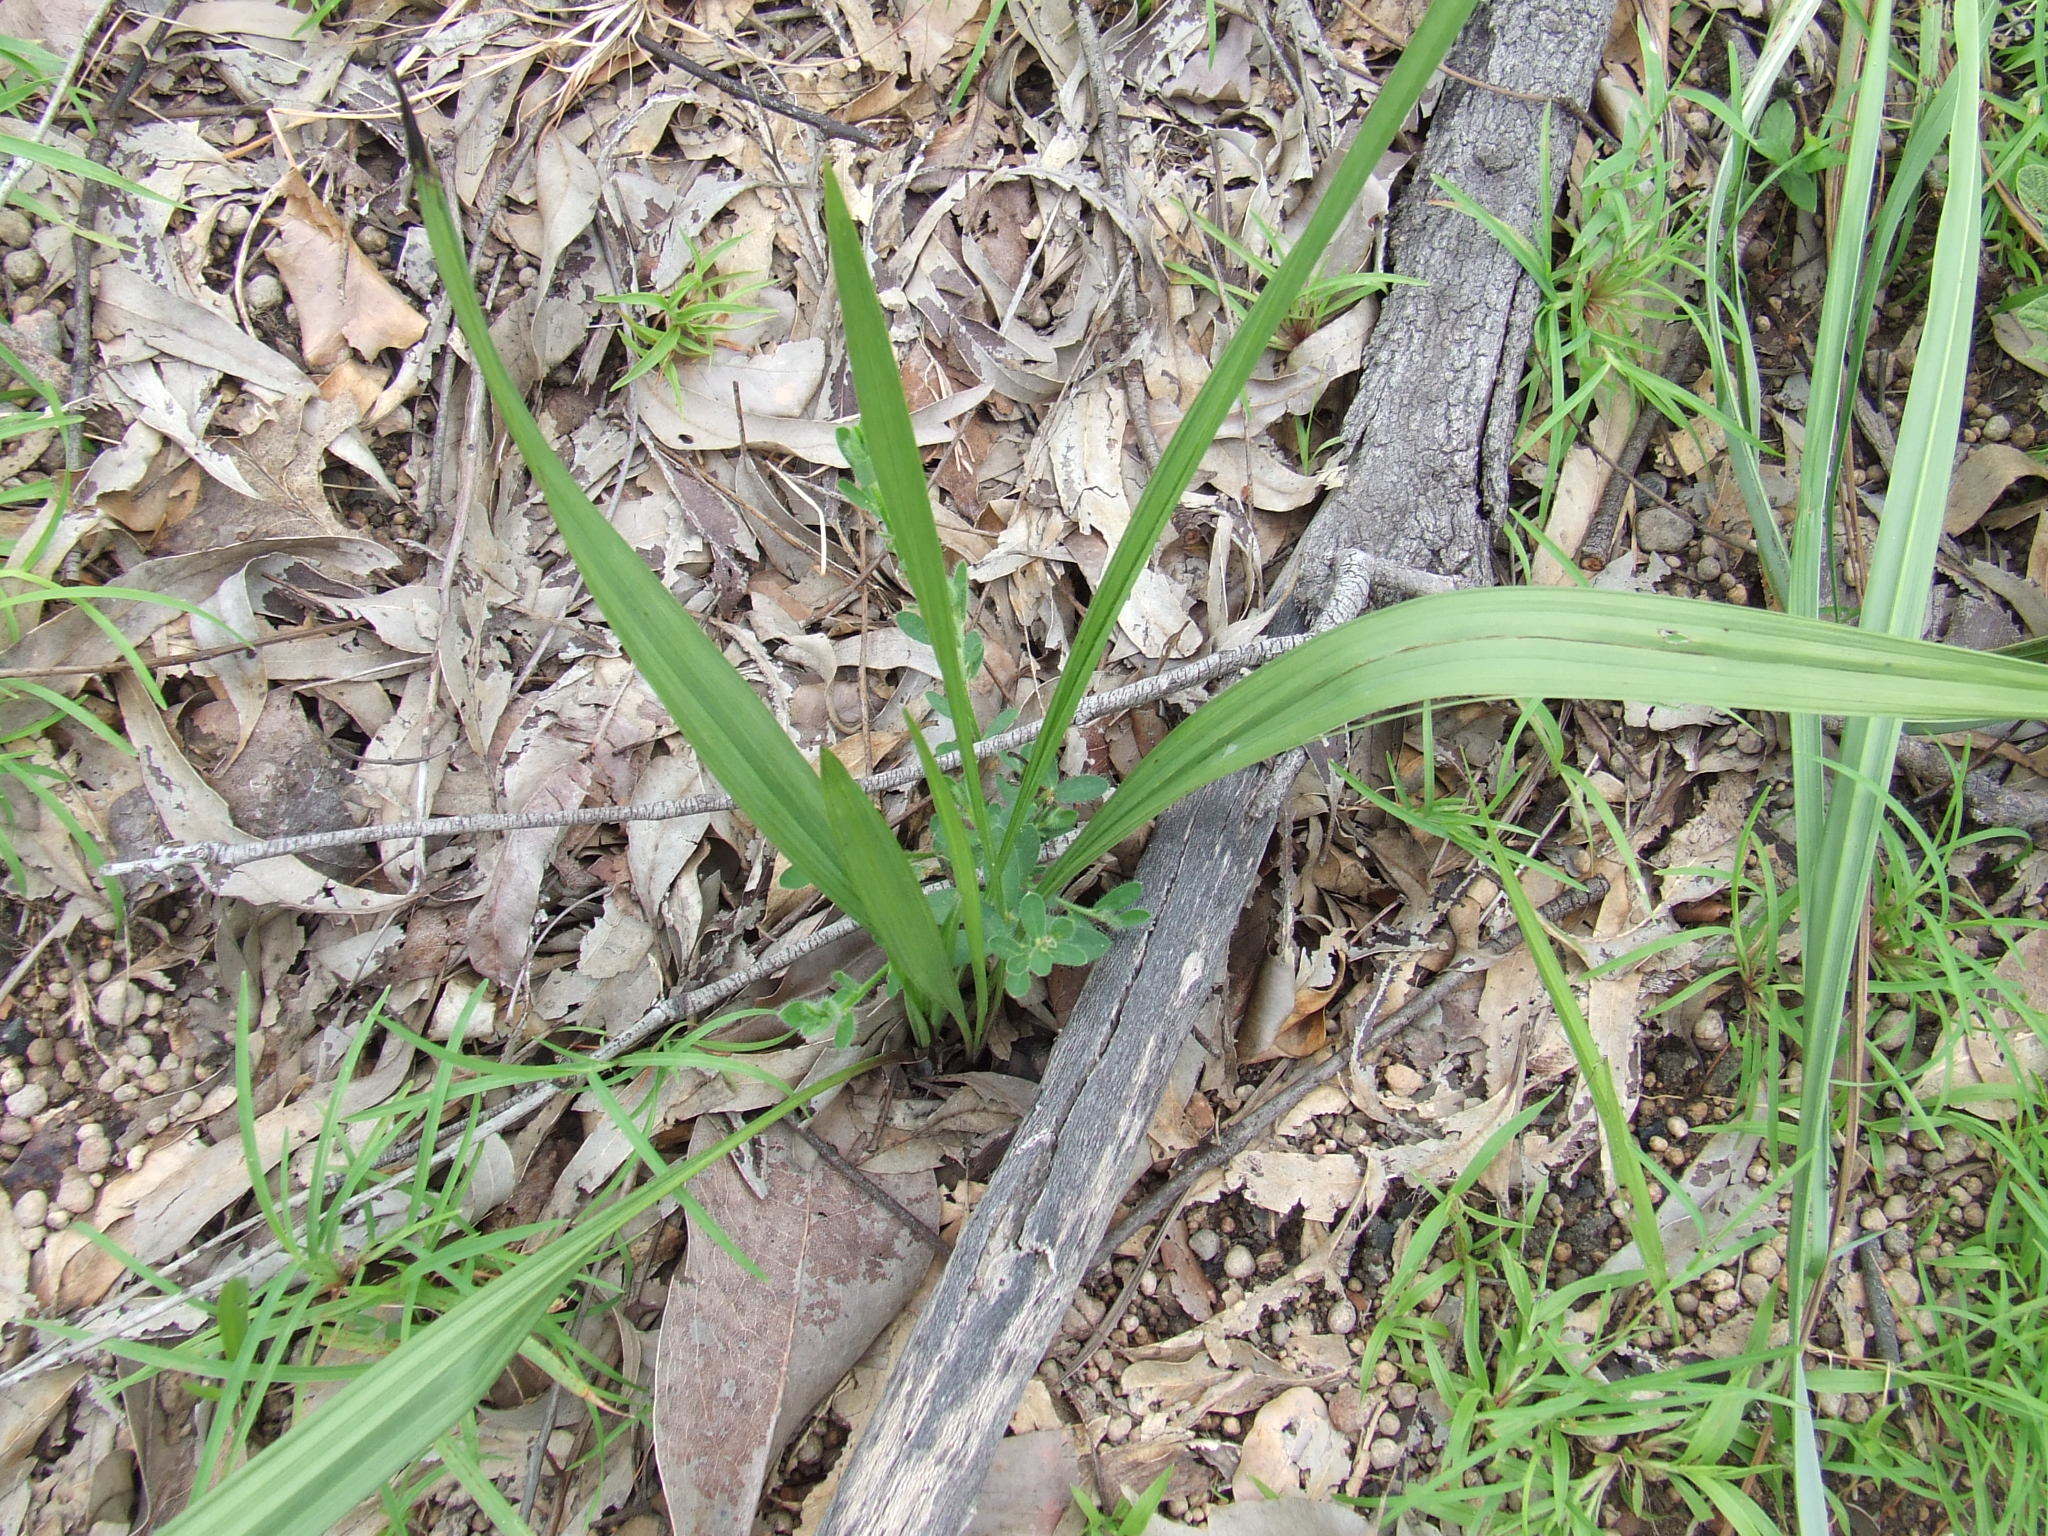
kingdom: Plantae
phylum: Tracheophyta
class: Liliopsida
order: Asparagales
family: Hypoxidaceae
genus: Curculigo
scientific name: Curculigo ensifolia
